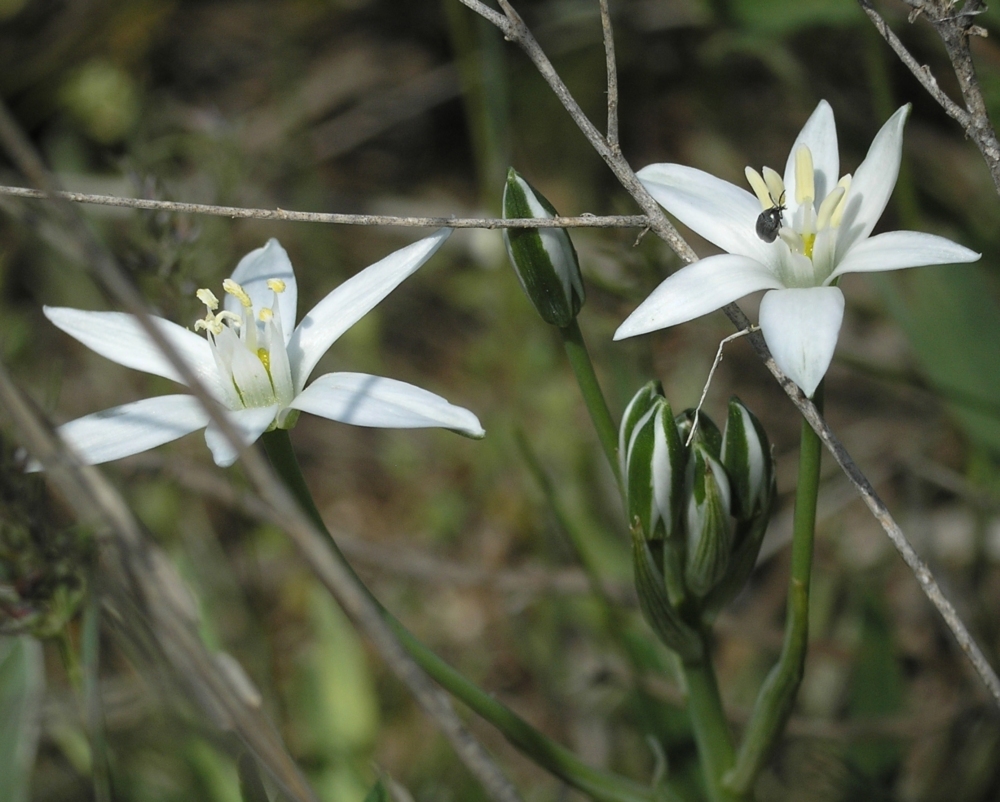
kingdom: Plantae
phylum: Tracheophyta
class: Liliopsida
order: Asparagales
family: Asparagaceae
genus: Ornithogalum
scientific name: Ornithogalum orthophyllum
